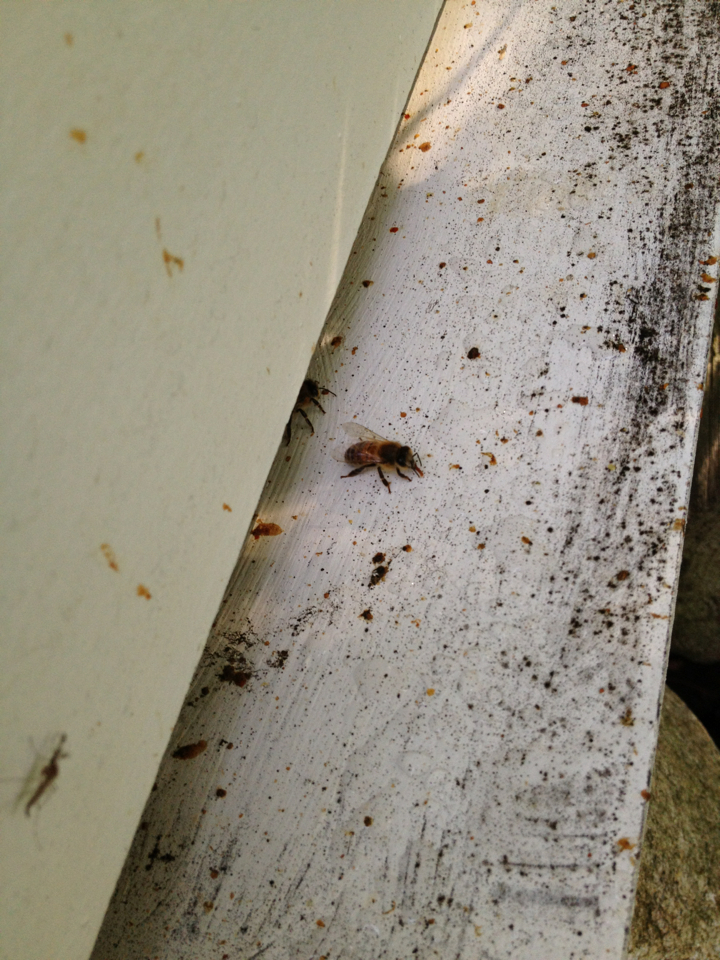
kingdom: Animalia
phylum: Arthropoda
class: Insecta
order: Hymenoptera
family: Apidae
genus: Apis
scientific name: Apis mellifera
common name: Honey bee
